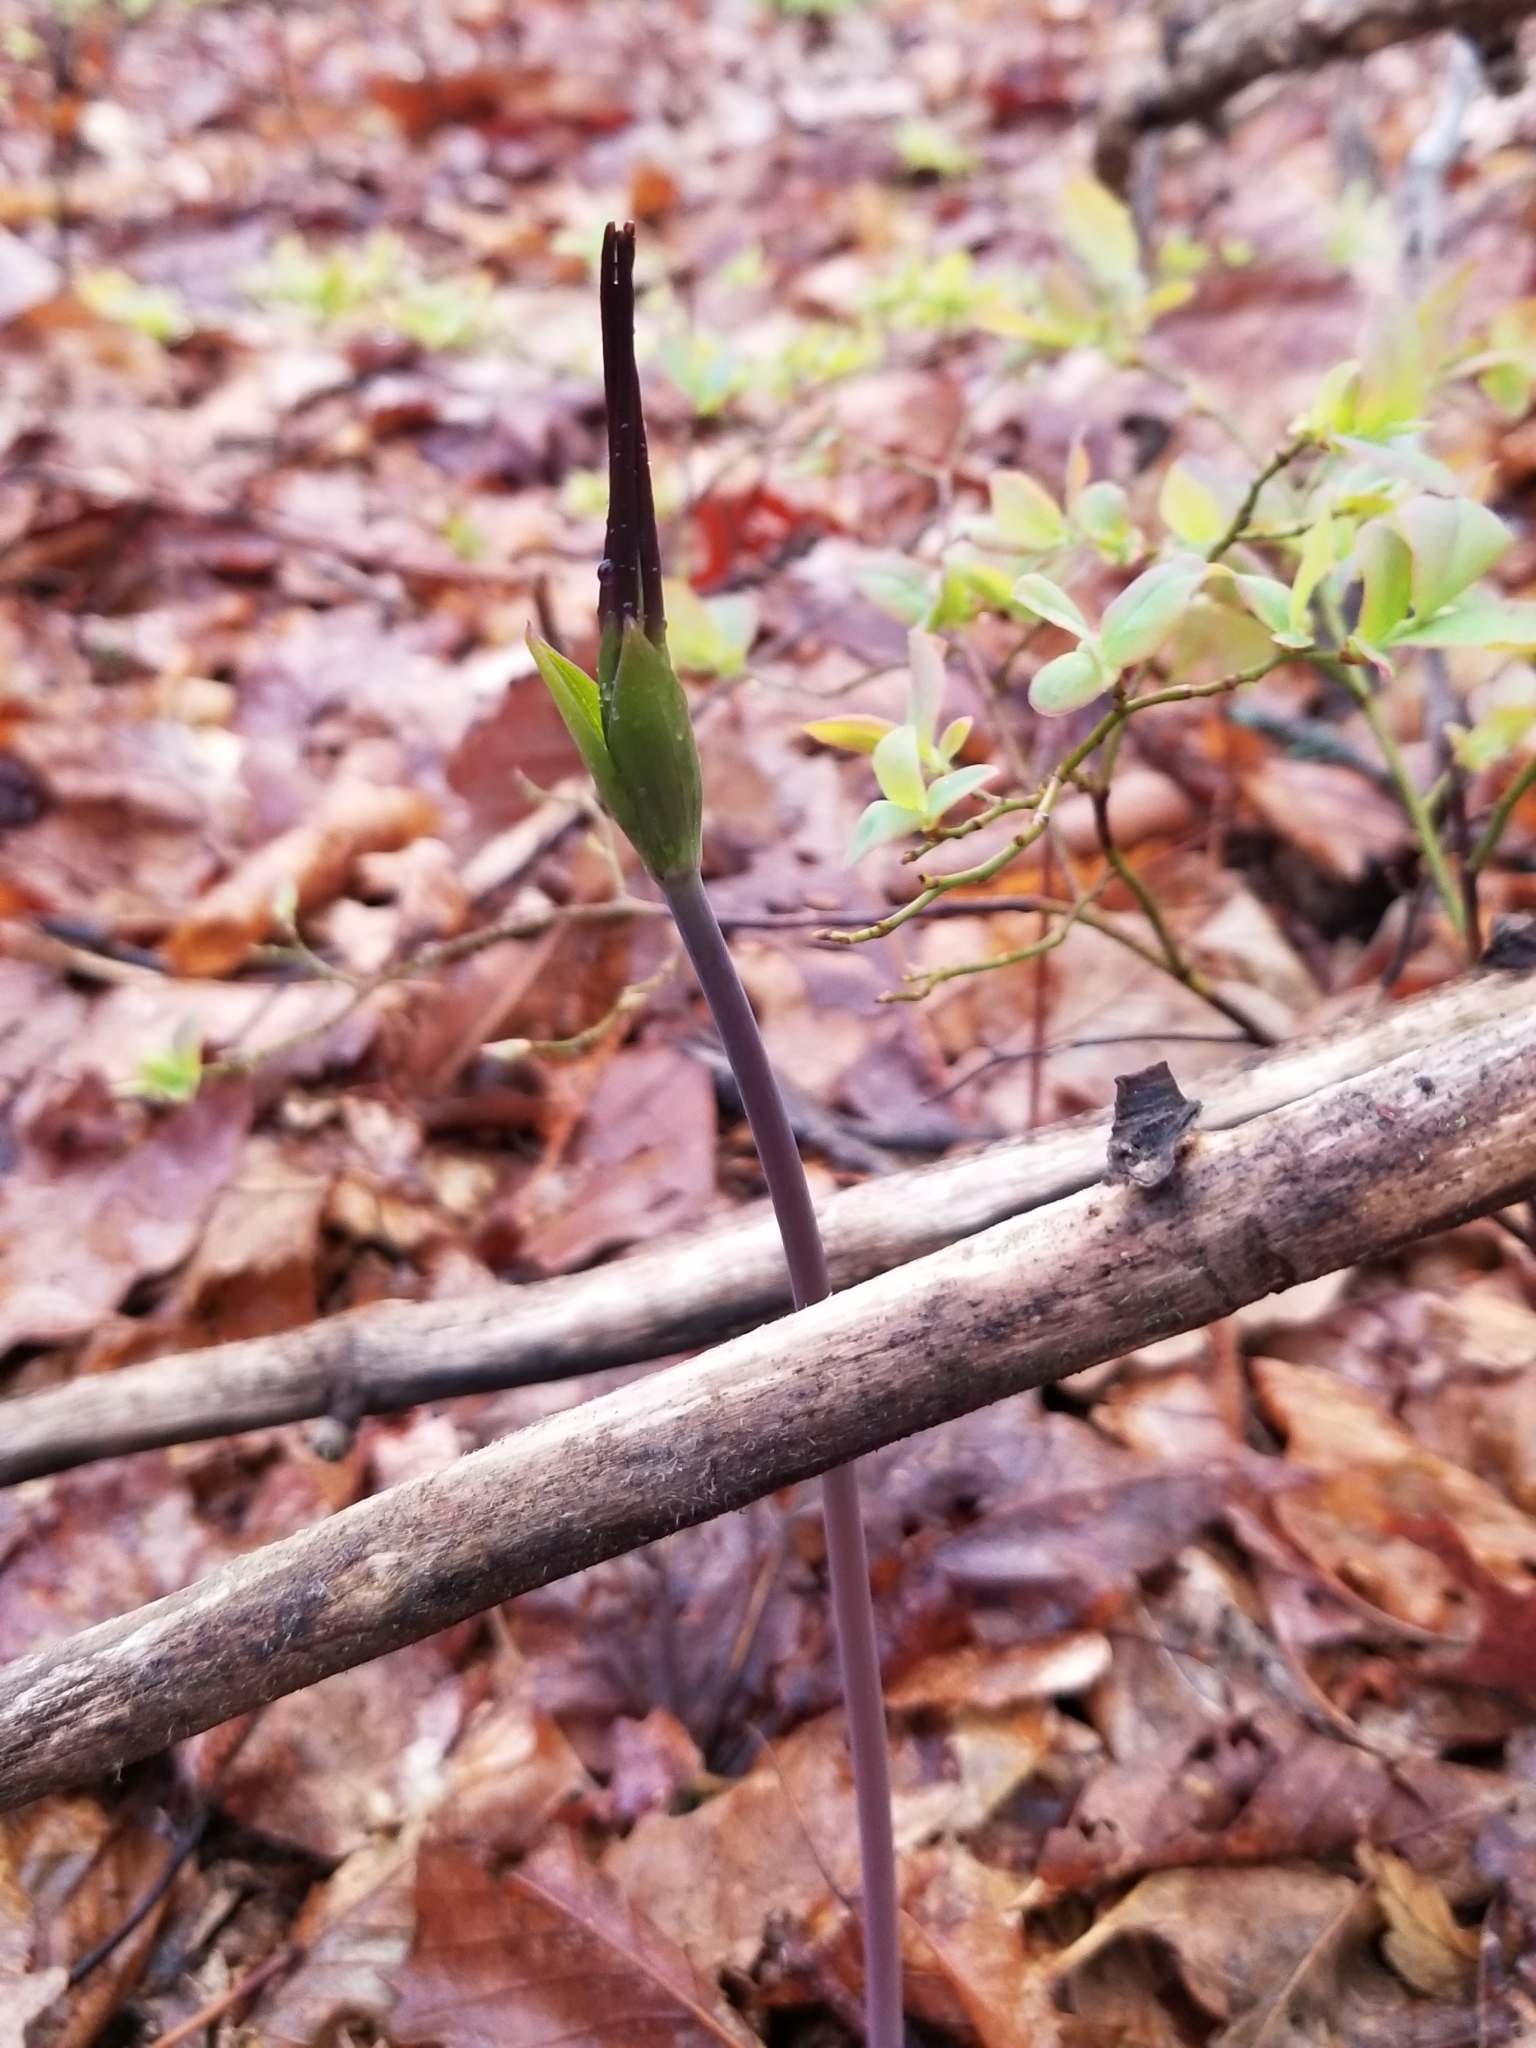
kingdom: Plantae
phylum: Tracheophyta
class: Liliopsida
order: Asparagales
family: Orchidaceae
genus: Isotria
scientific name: Isotria verticillata
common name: Large whorled pogonia
